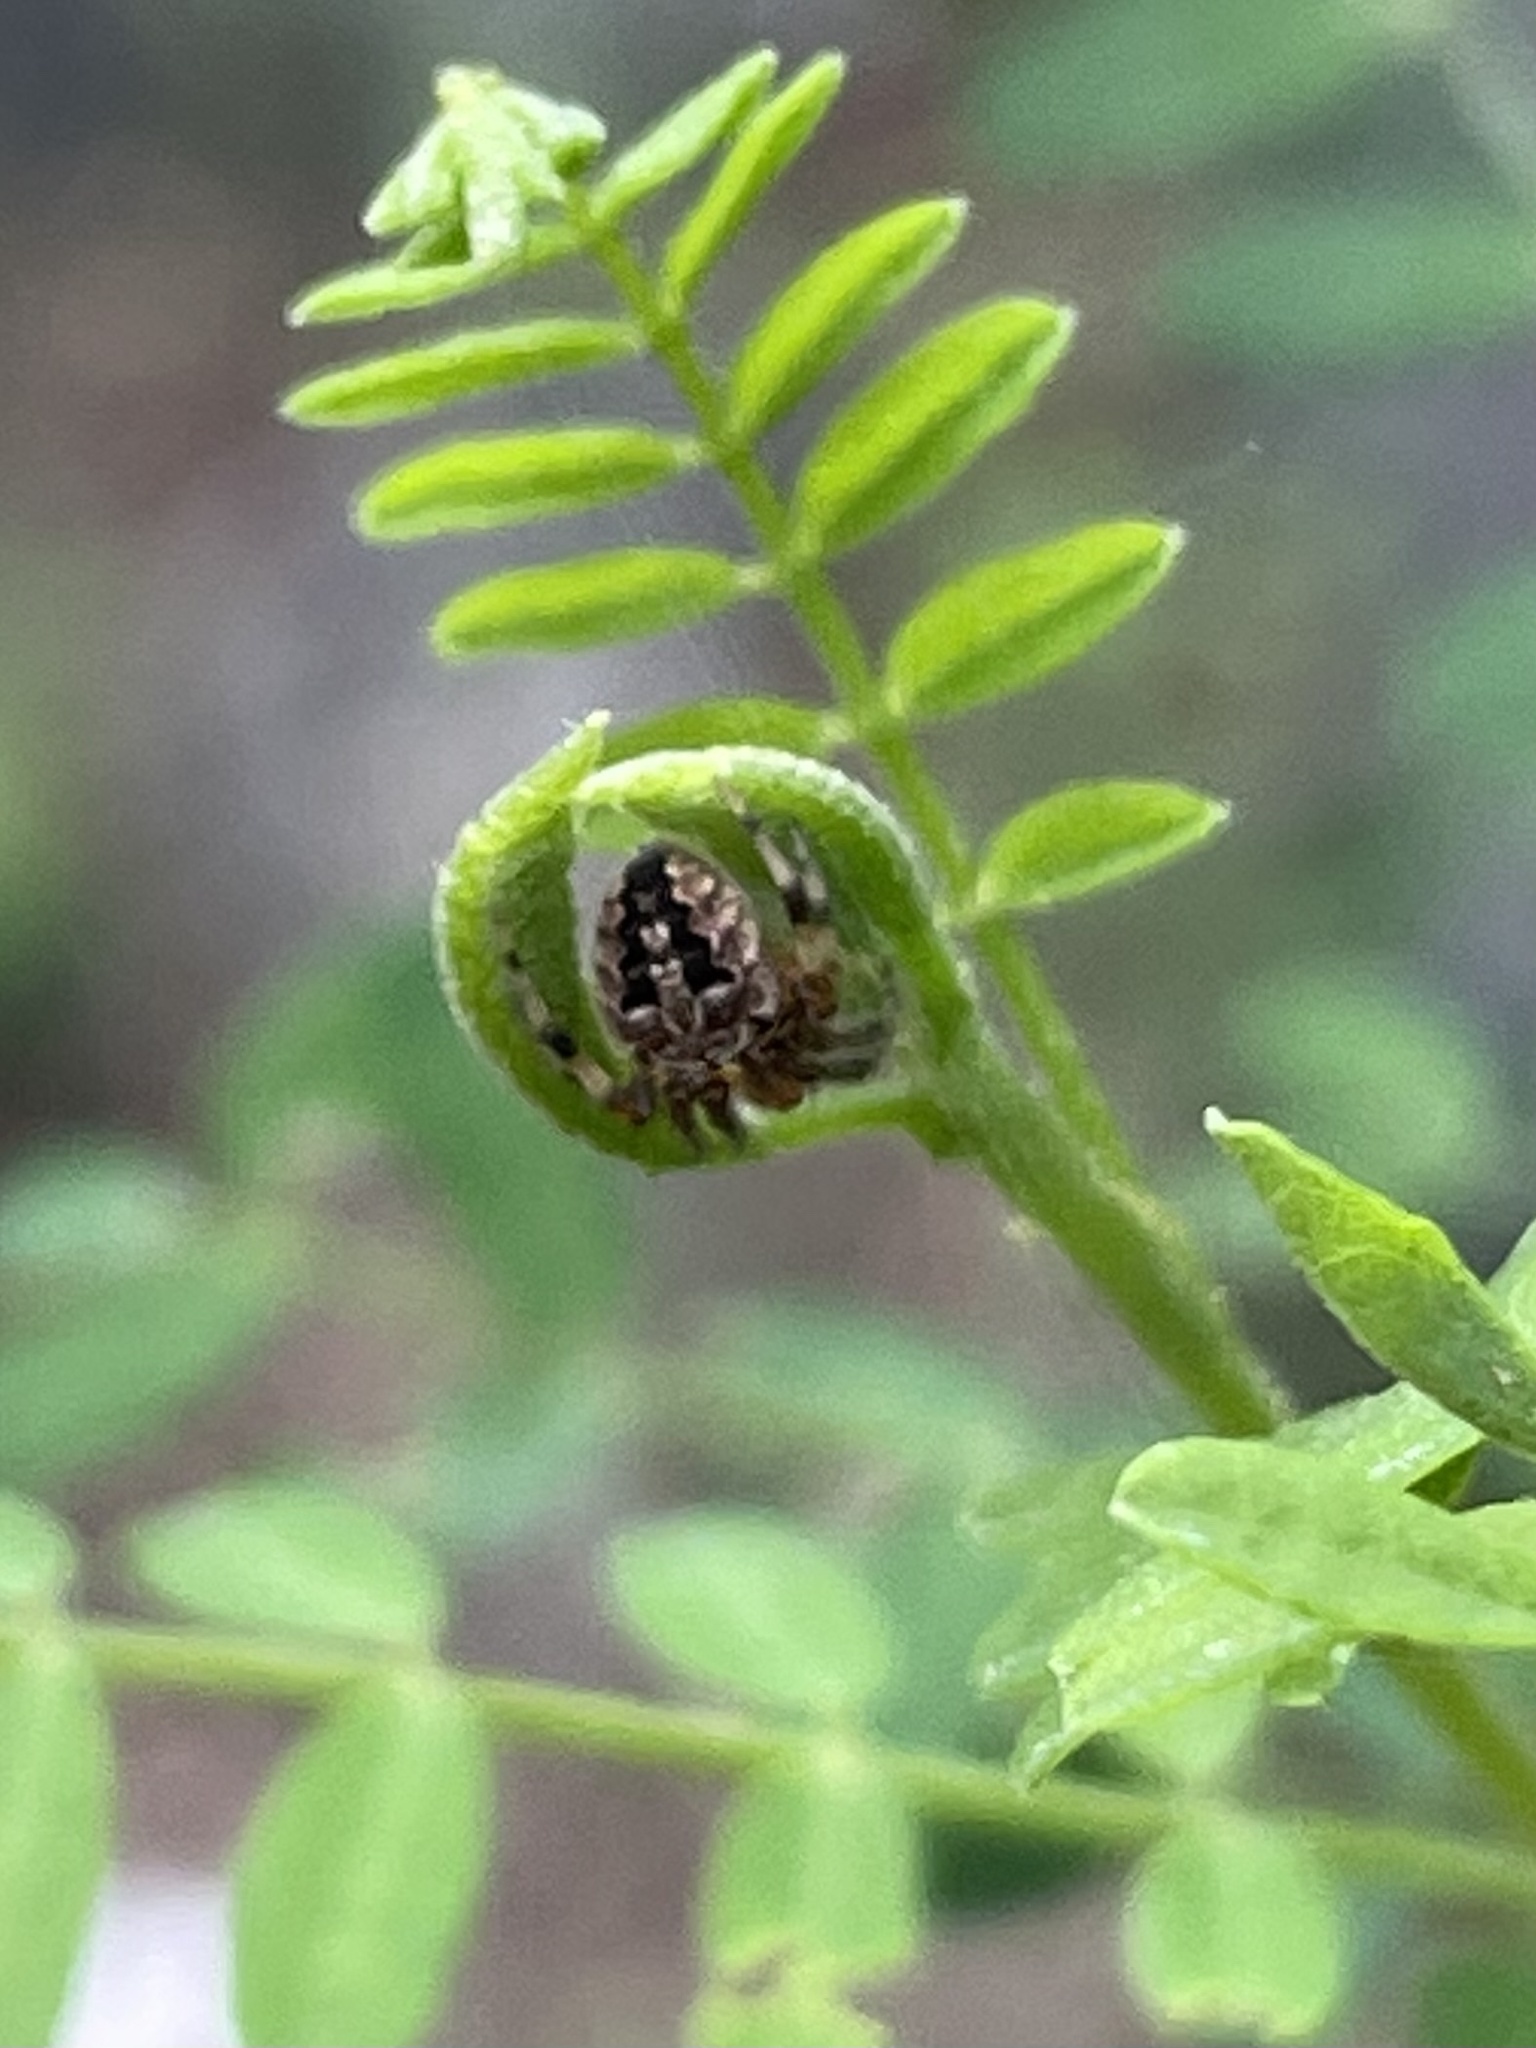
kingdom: Animalia
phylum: Arthropoda
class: Arachnida
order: Araneae
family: Araneidae
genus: Neoscona
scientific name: Neoscona arabesca
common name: Orb weavers
